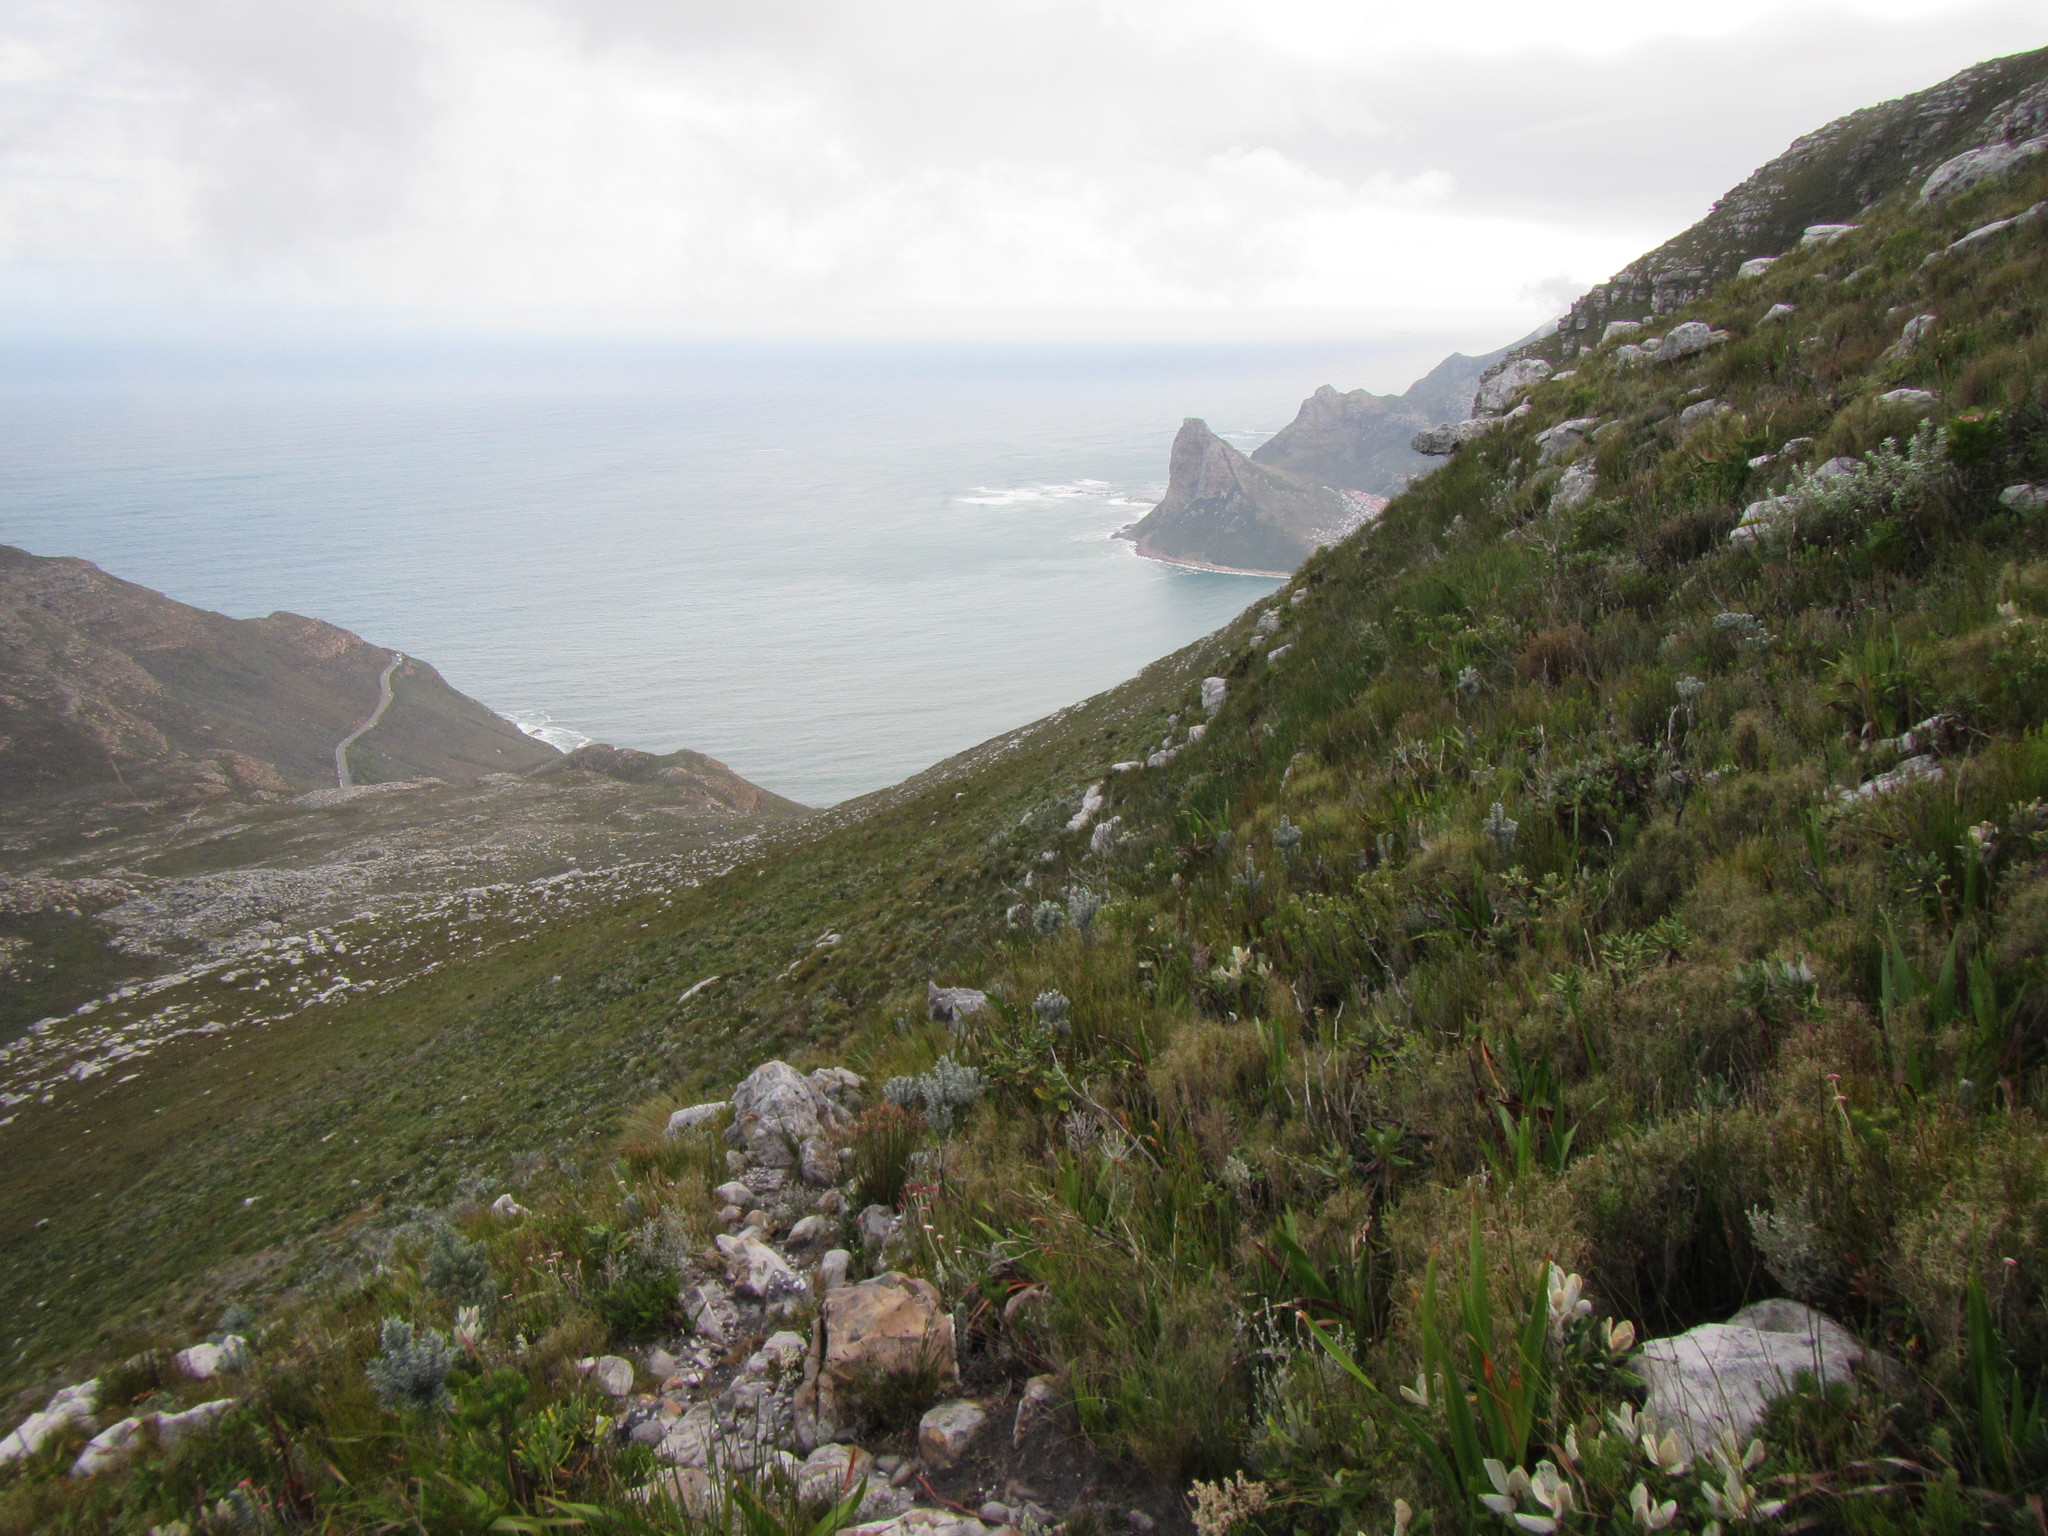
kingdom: Plantae
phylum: Tracheophyta
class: Magnoliopsida
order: Ericales
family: Ericaceae
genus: Erica
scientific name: Erica physodes
